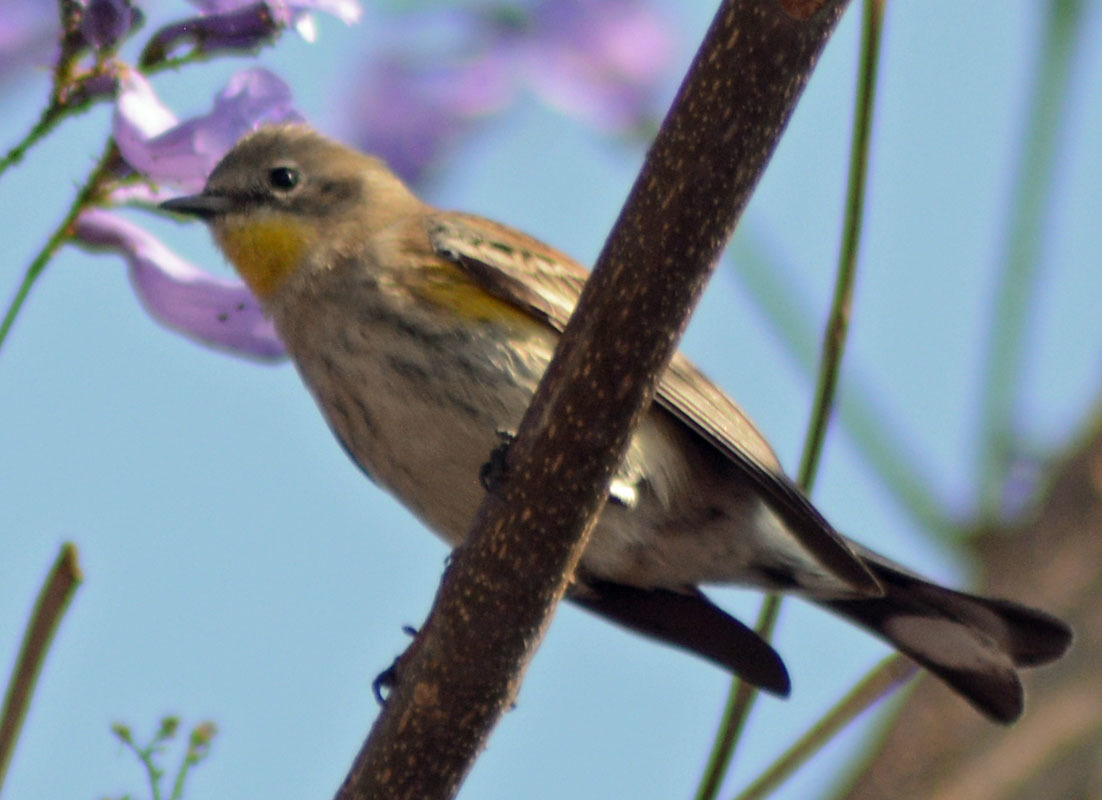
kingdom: Animalia
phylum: Chordata
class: Aves
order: Passeriformes
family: Parulidae
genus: Setophaga
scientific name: Setophaga coronata
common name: Myrtle warbler
